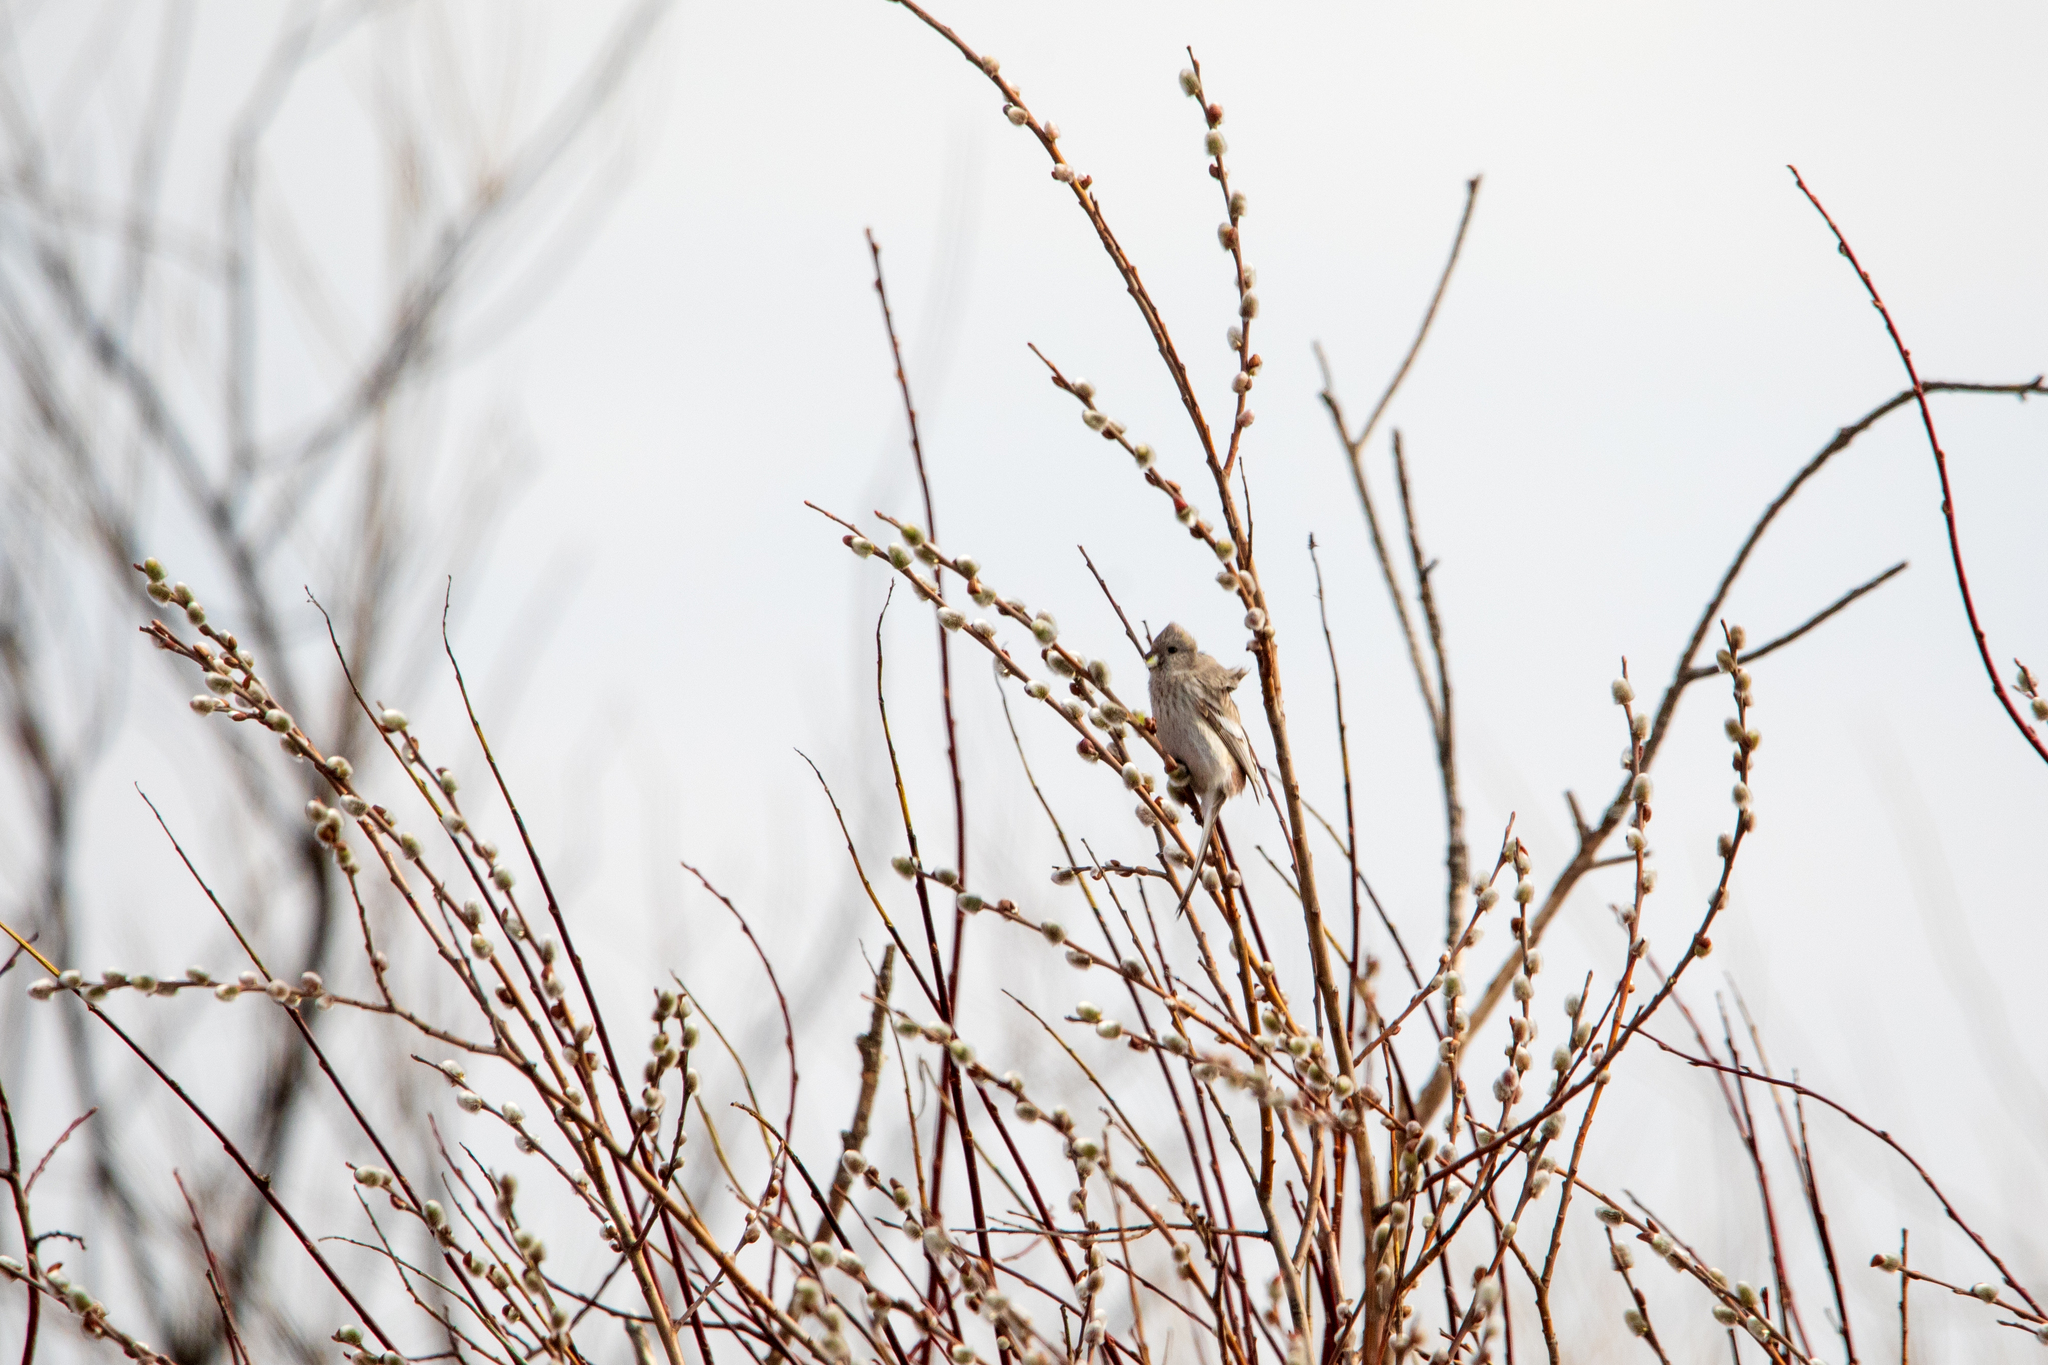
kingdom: Animalia
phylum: Chordata
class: Aves
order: Passeriformes
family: Fringillidae
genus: Carpodacus
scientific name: Carpodacus sibiricus
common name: Long-tailed rosefinch
